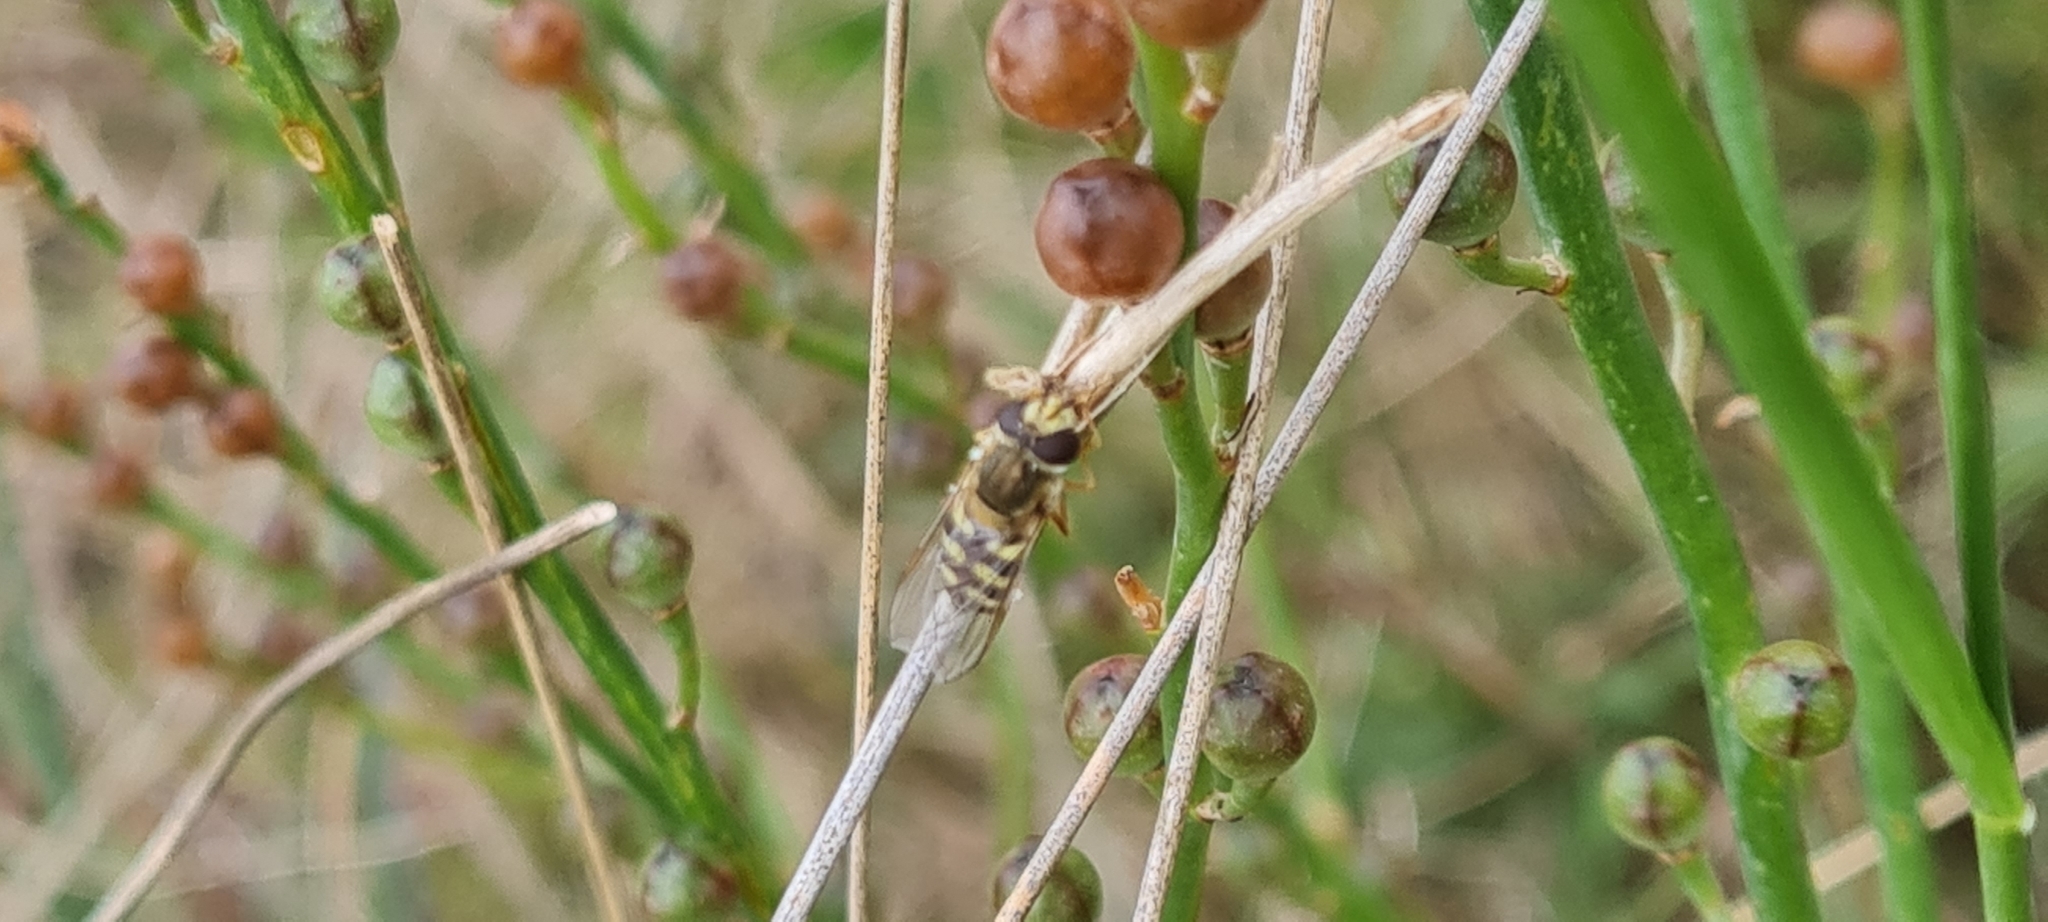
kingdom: Animalia
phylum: Arthropoda
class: Insecta
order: Diptera
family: Syrphidae
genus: Eupeodes
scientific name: Eupeodes corollae
